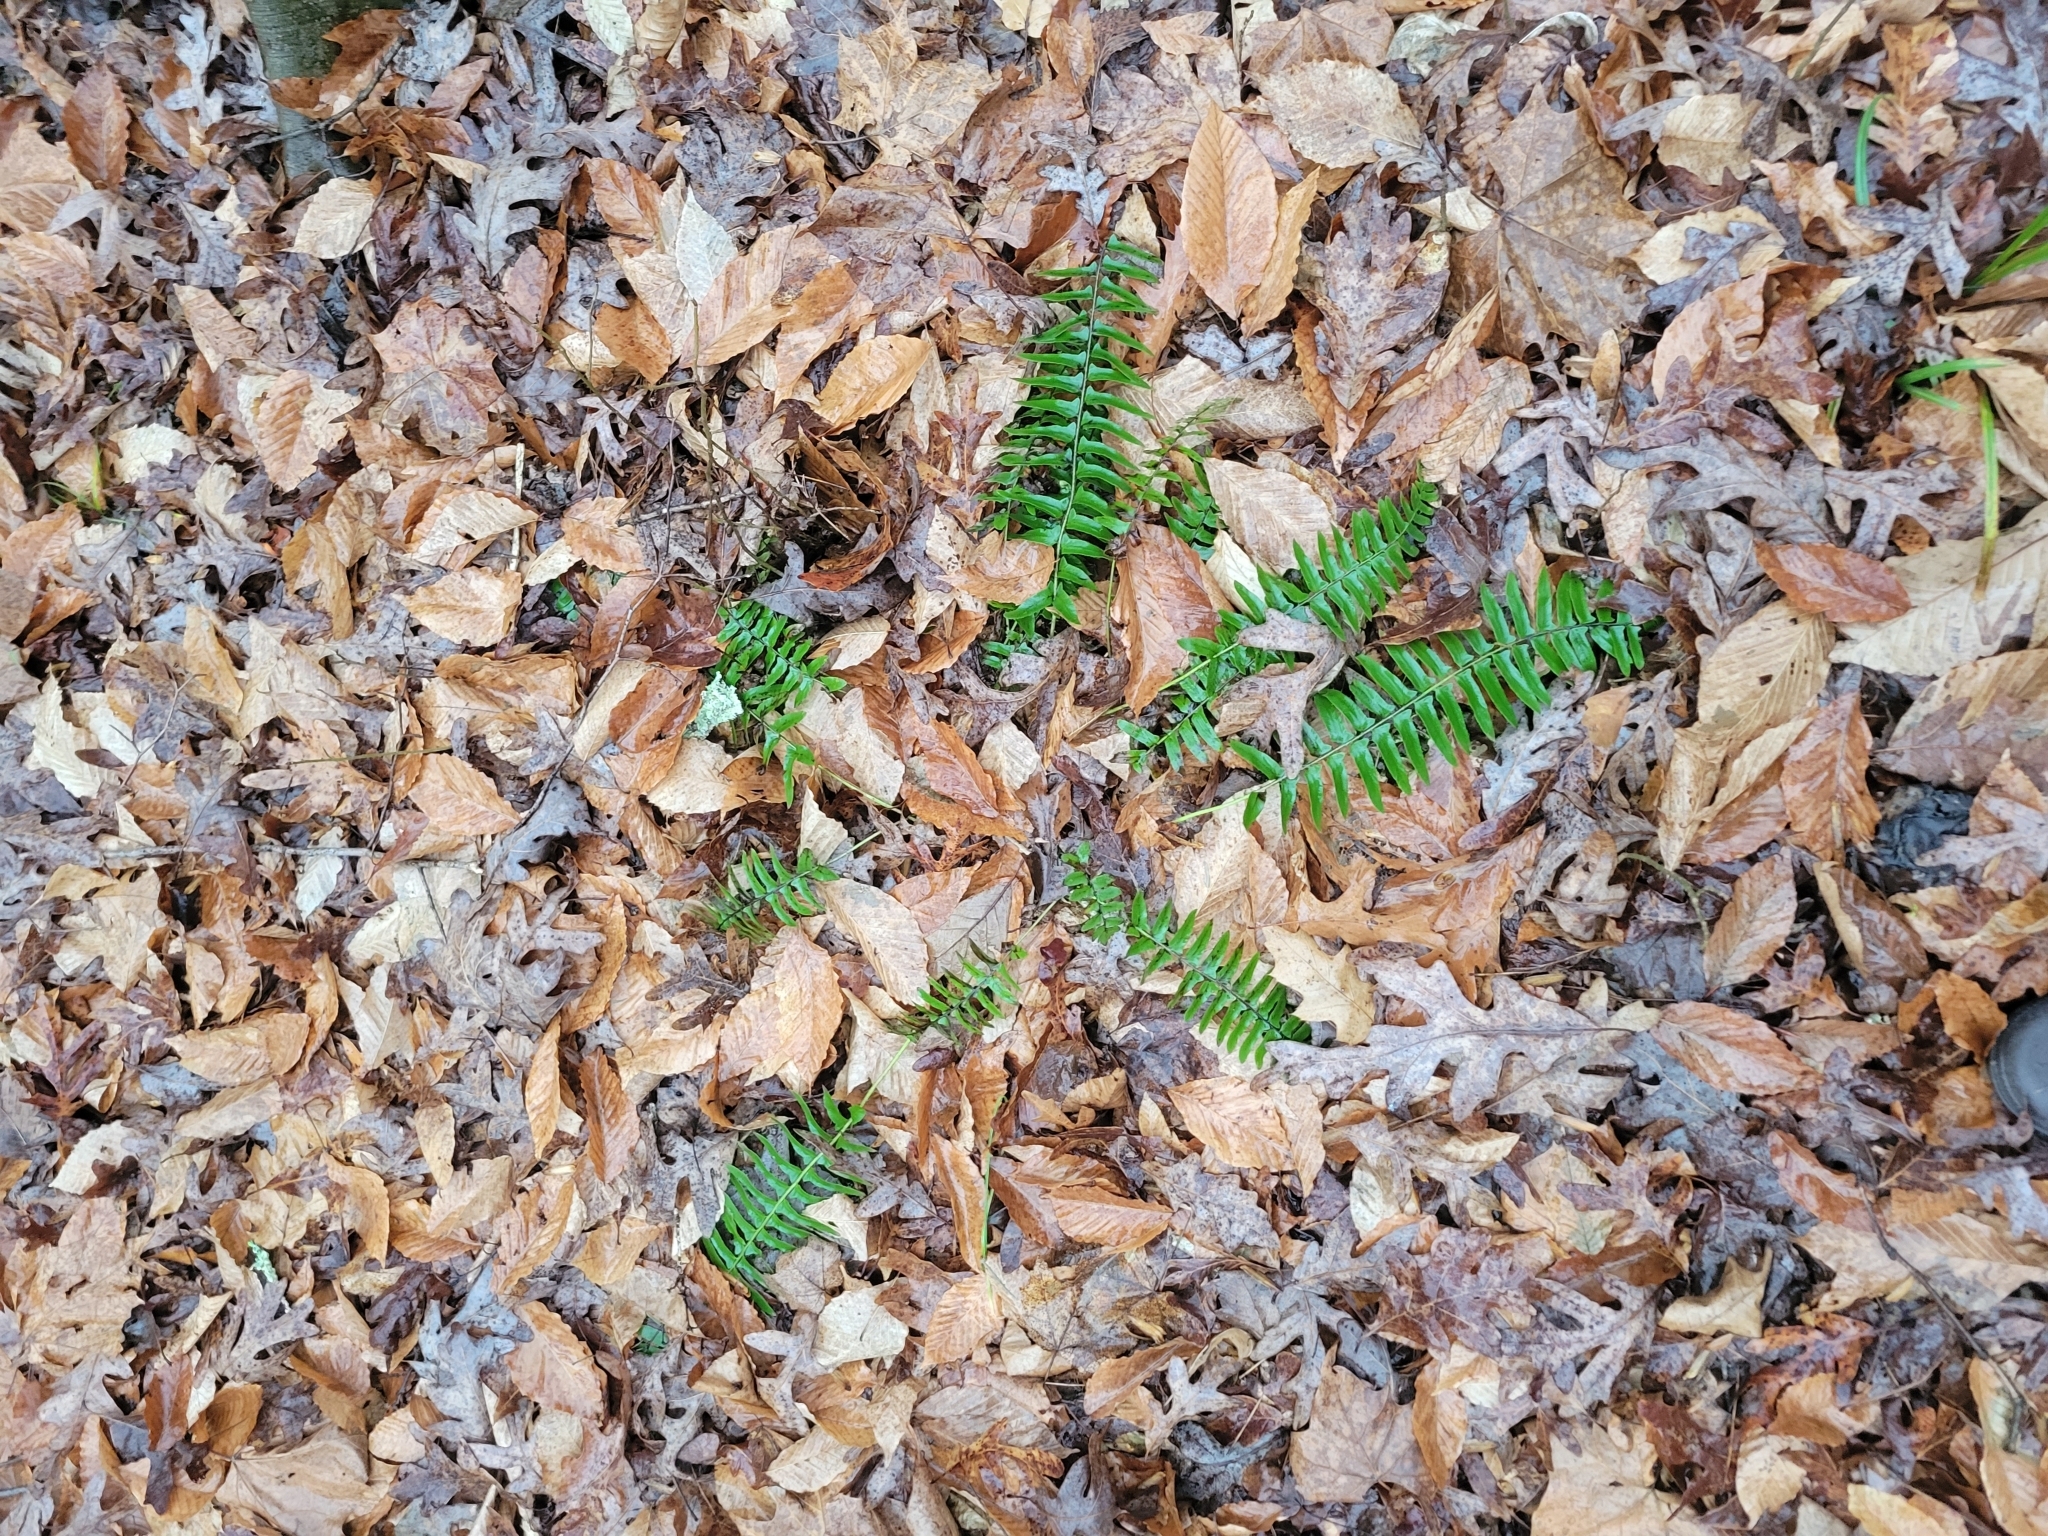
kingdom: Plantae
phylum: Tracheophyta
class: Polypodiopsida
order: Polypodiales
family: Dryopteridaceae
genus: Polystichum
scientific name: Polystichum acrostichoides
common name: Christmas fern
